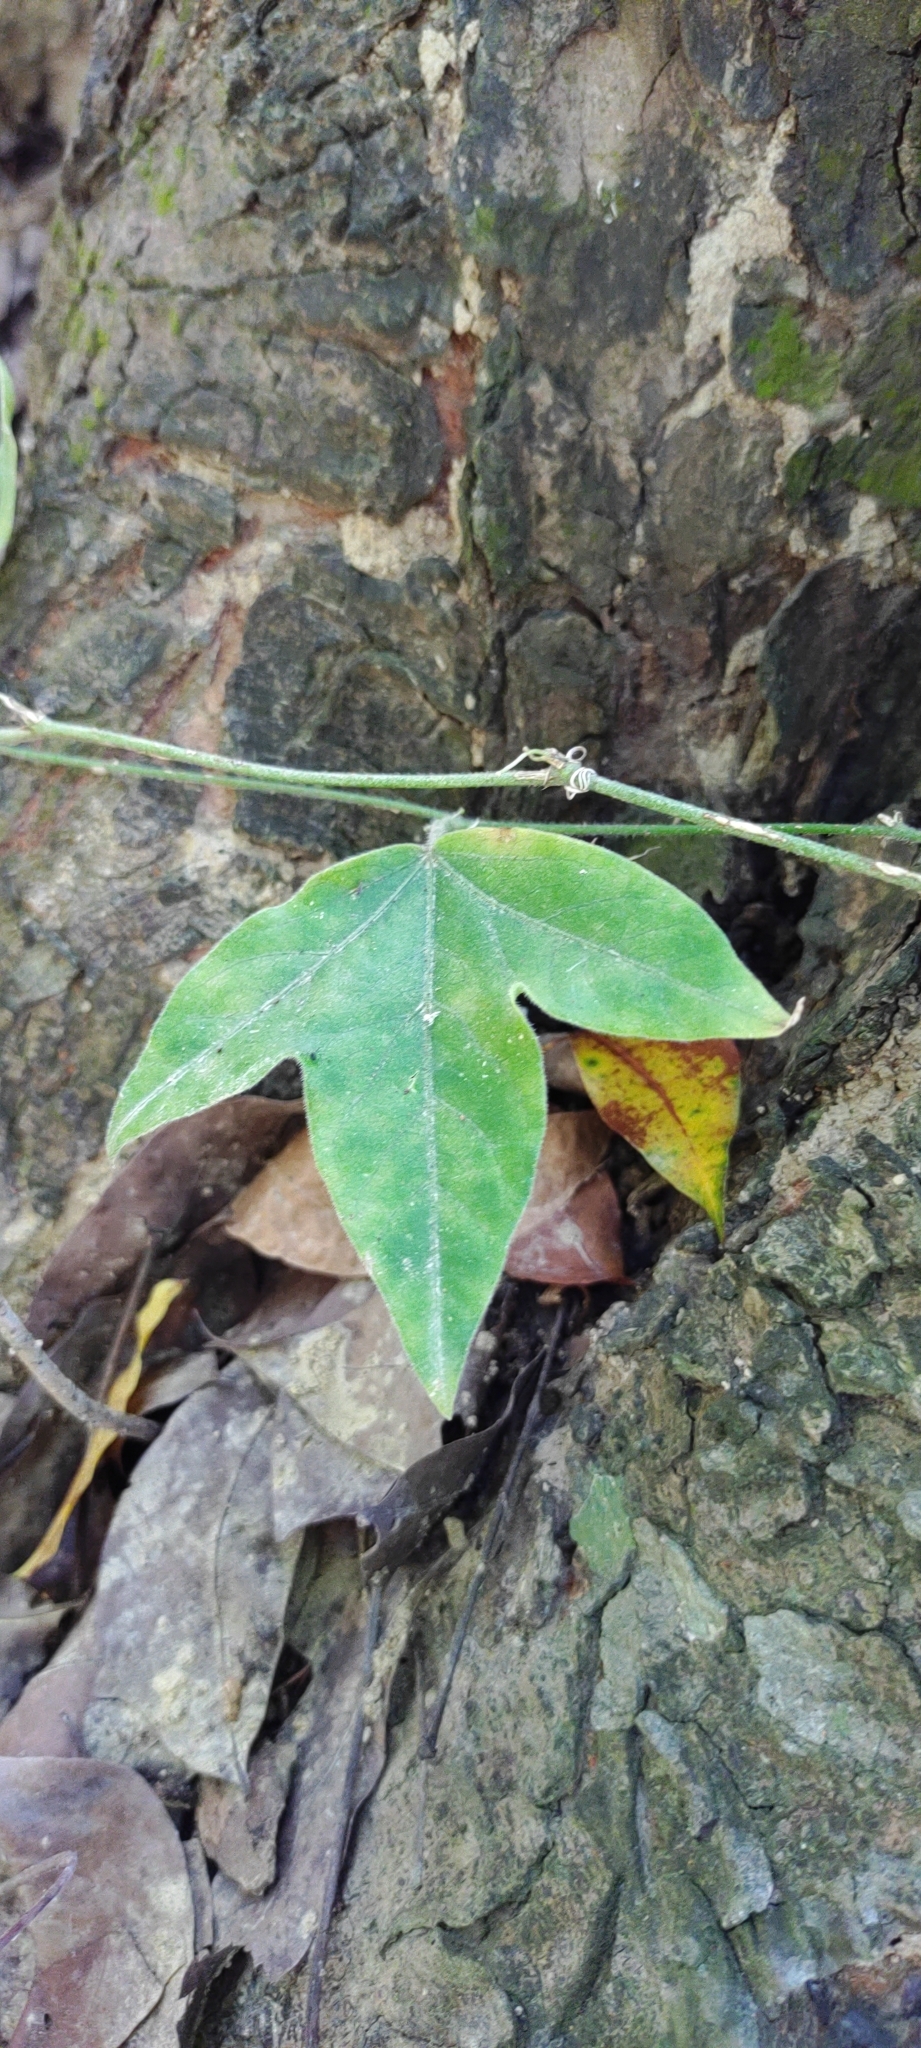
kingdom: Plantae
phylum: Tracheophyta
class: Magnoliopsida
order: Malpighiales
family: Passifloraceae
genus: Passiflora
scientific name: Passiflora suberosa
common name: Wild passionfruit
